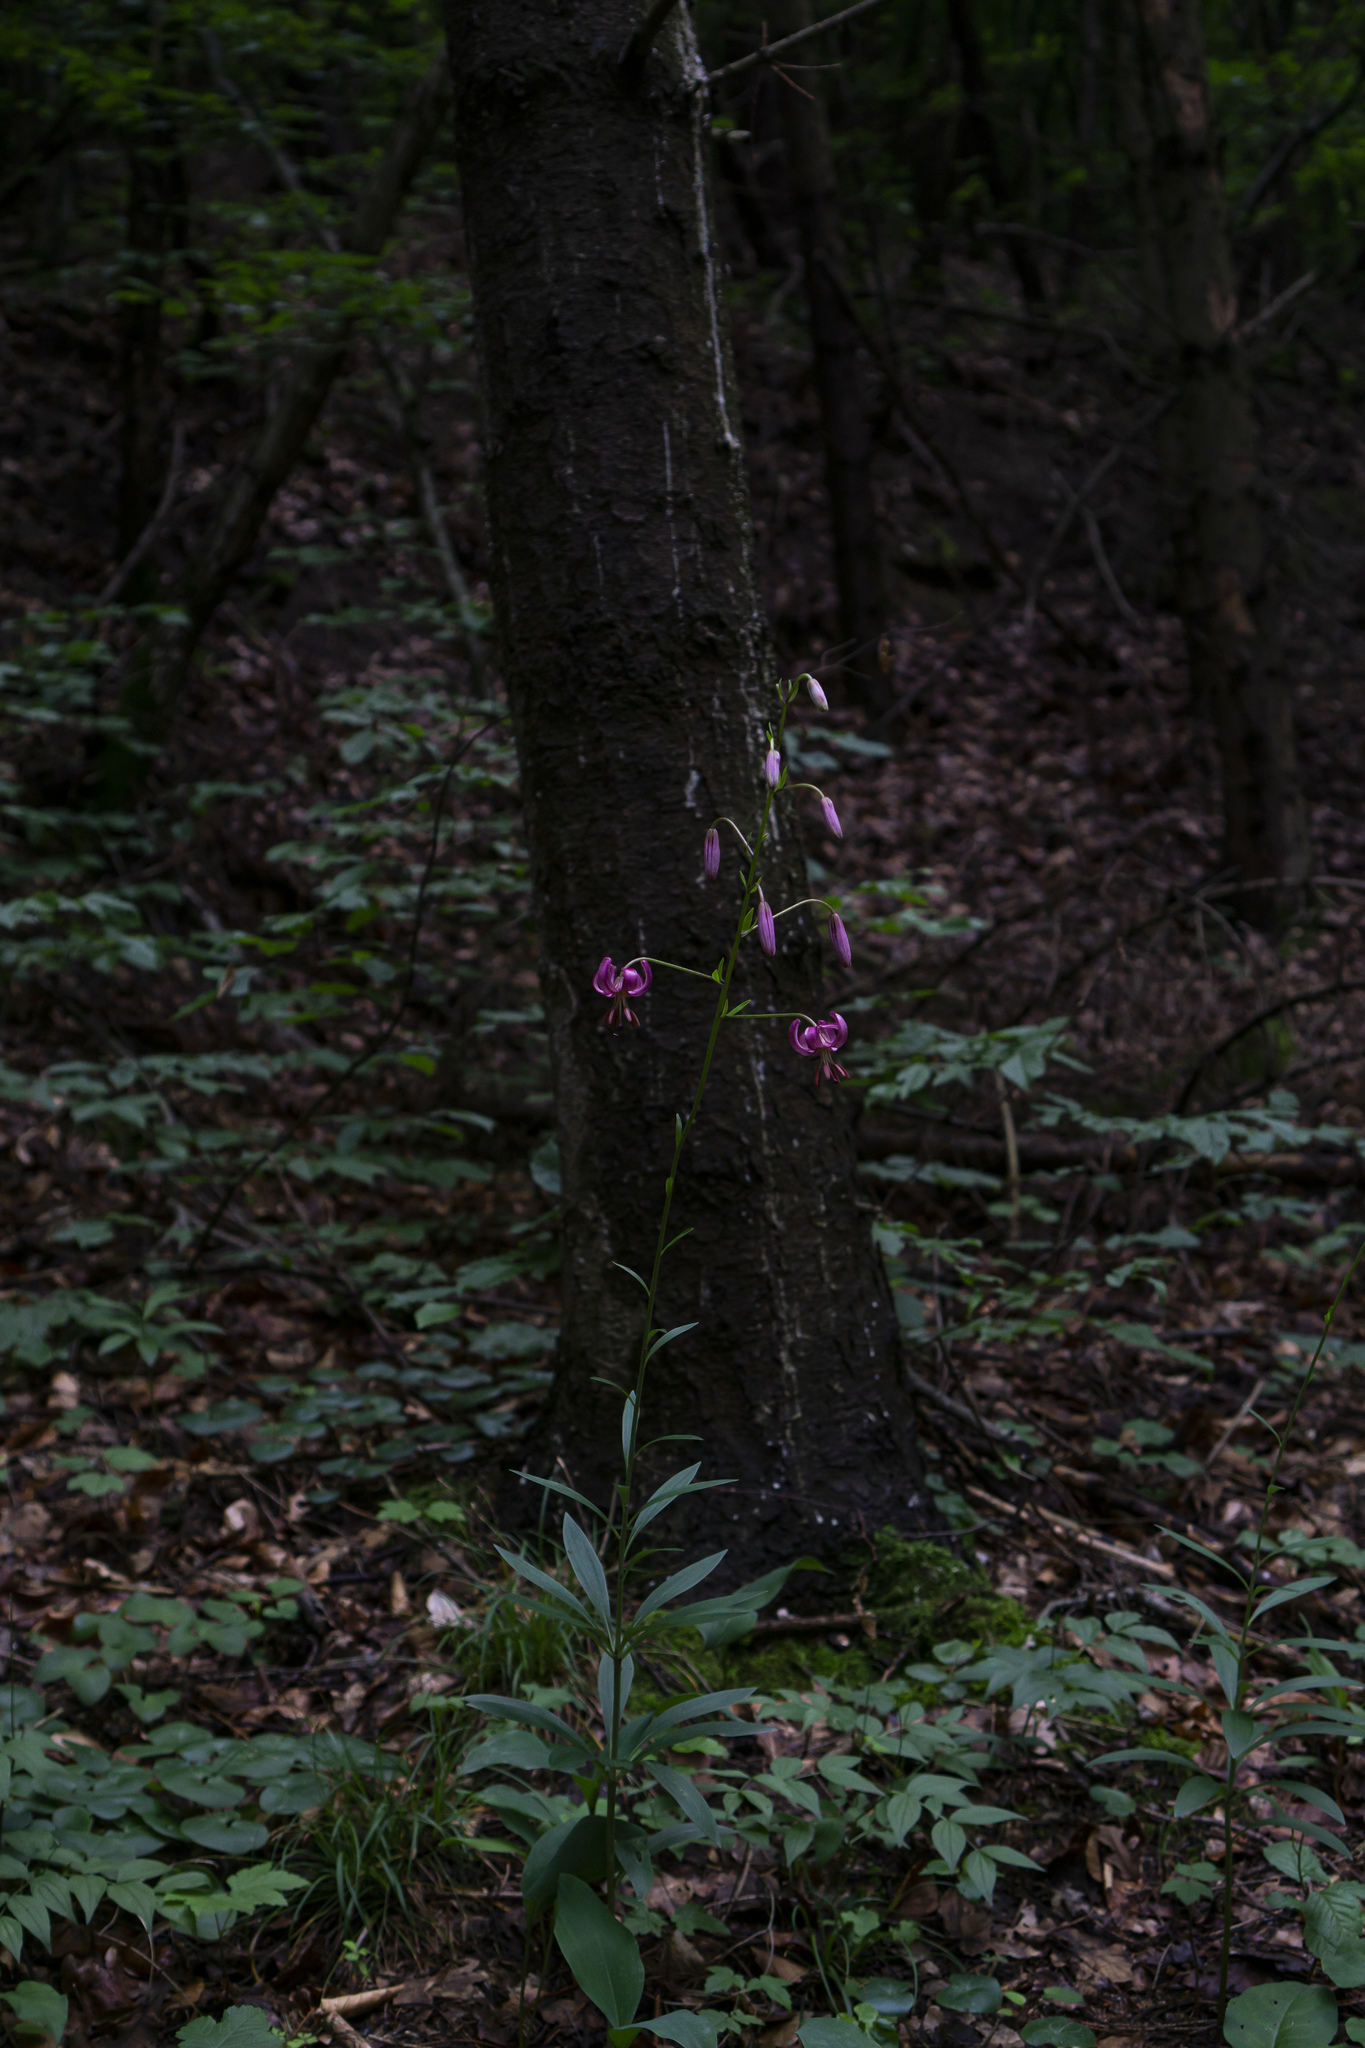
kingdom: Plantae
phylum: Tracheophyta
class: Liliopsida
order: Liliales
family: Liliaceae
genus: Lilium
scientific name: Lilium martagon
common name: Martagon lily
